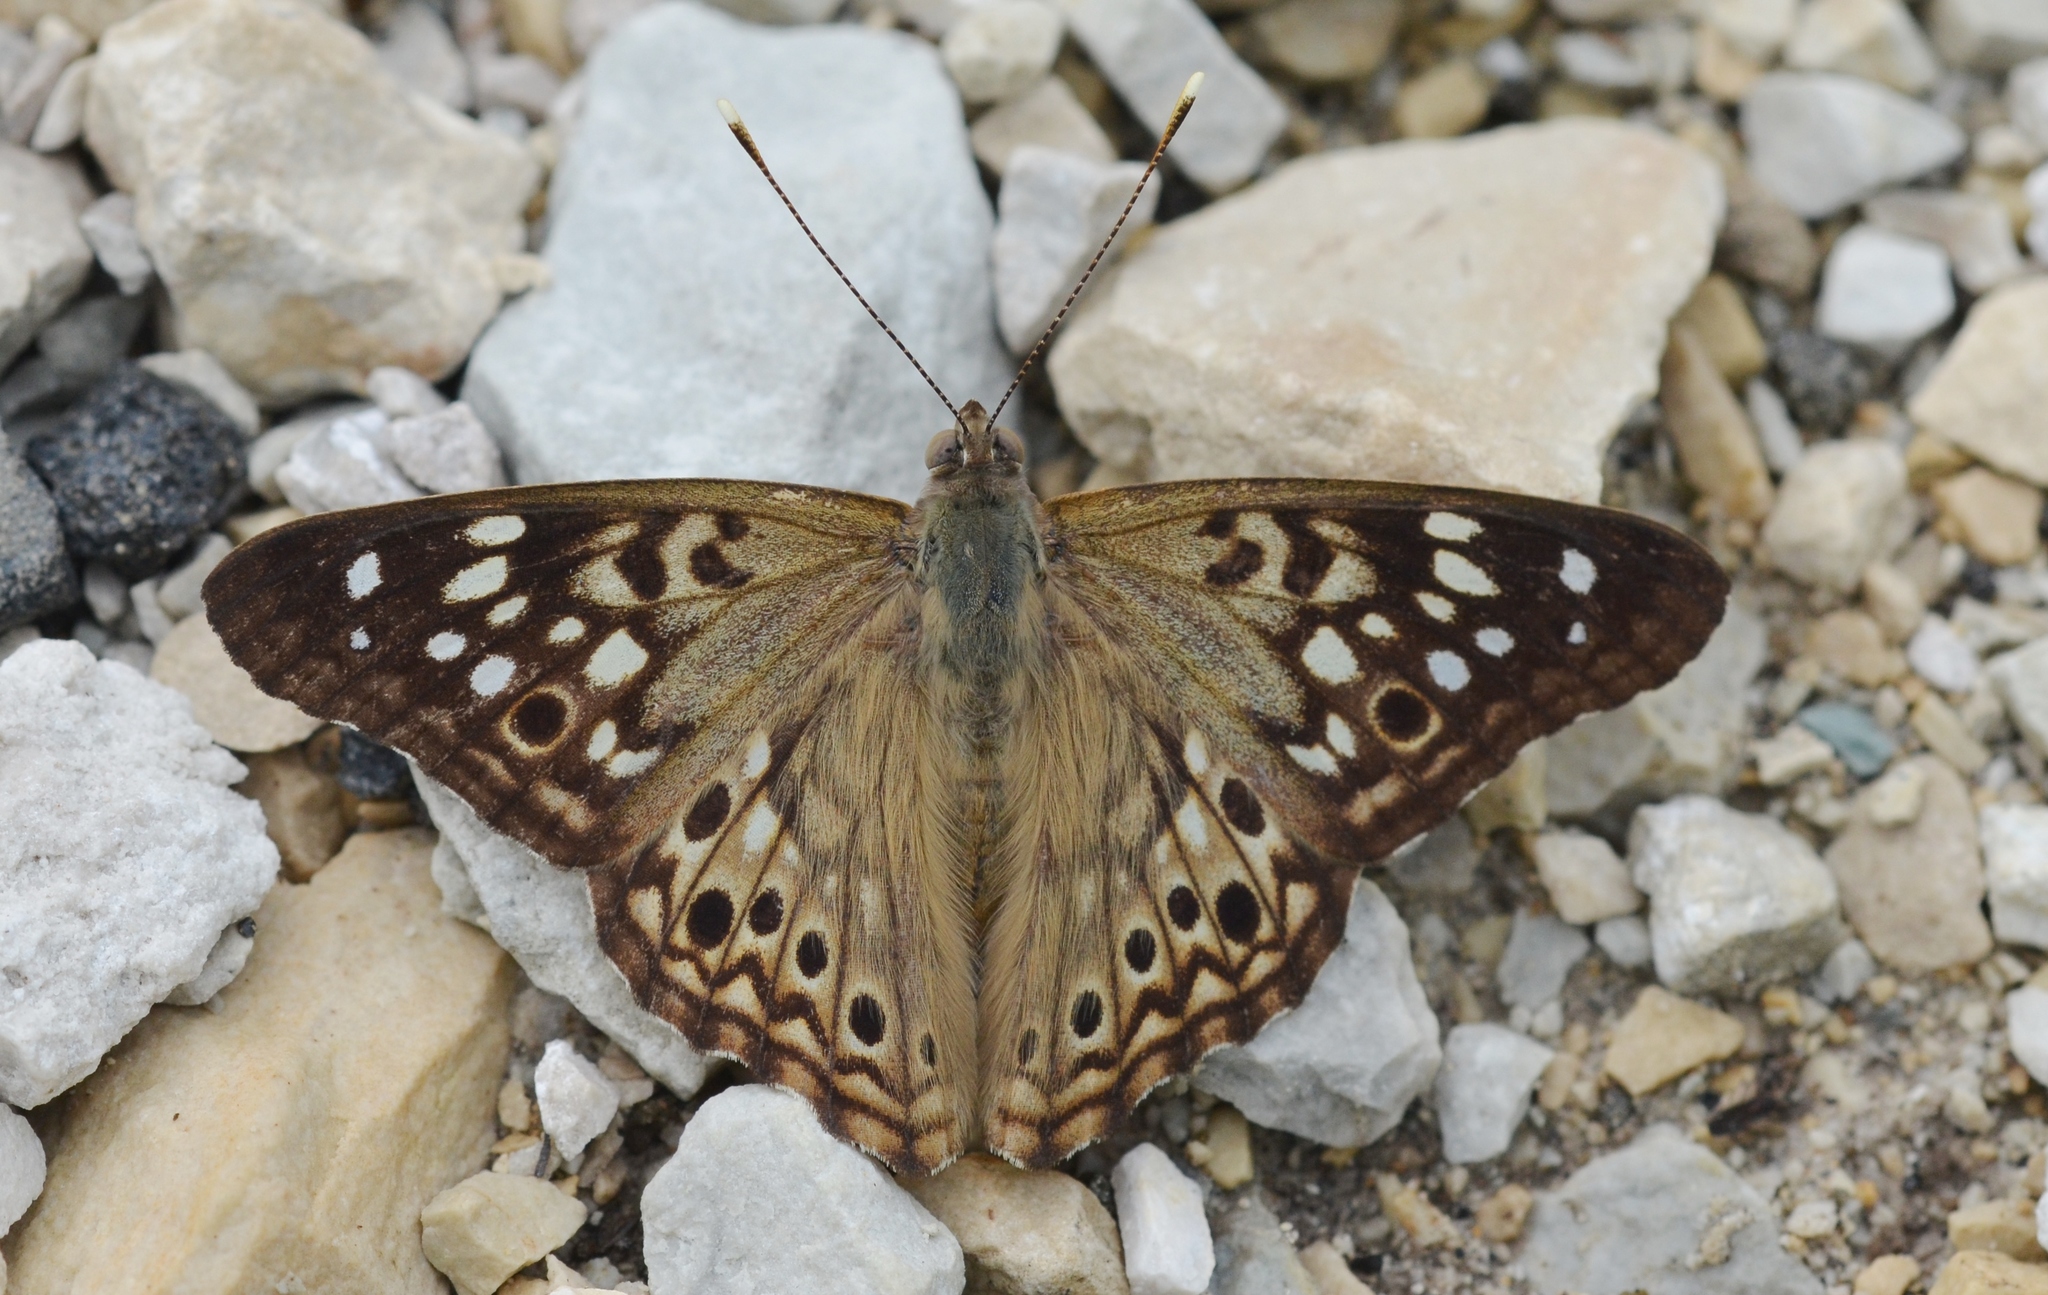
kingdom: Animalia
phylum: Arthropoda
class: Insecta
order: Lepidoptera
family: Nymphalidae
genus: Asterocampa
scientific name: Asterocampa celtis
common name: Hackberry emperor
